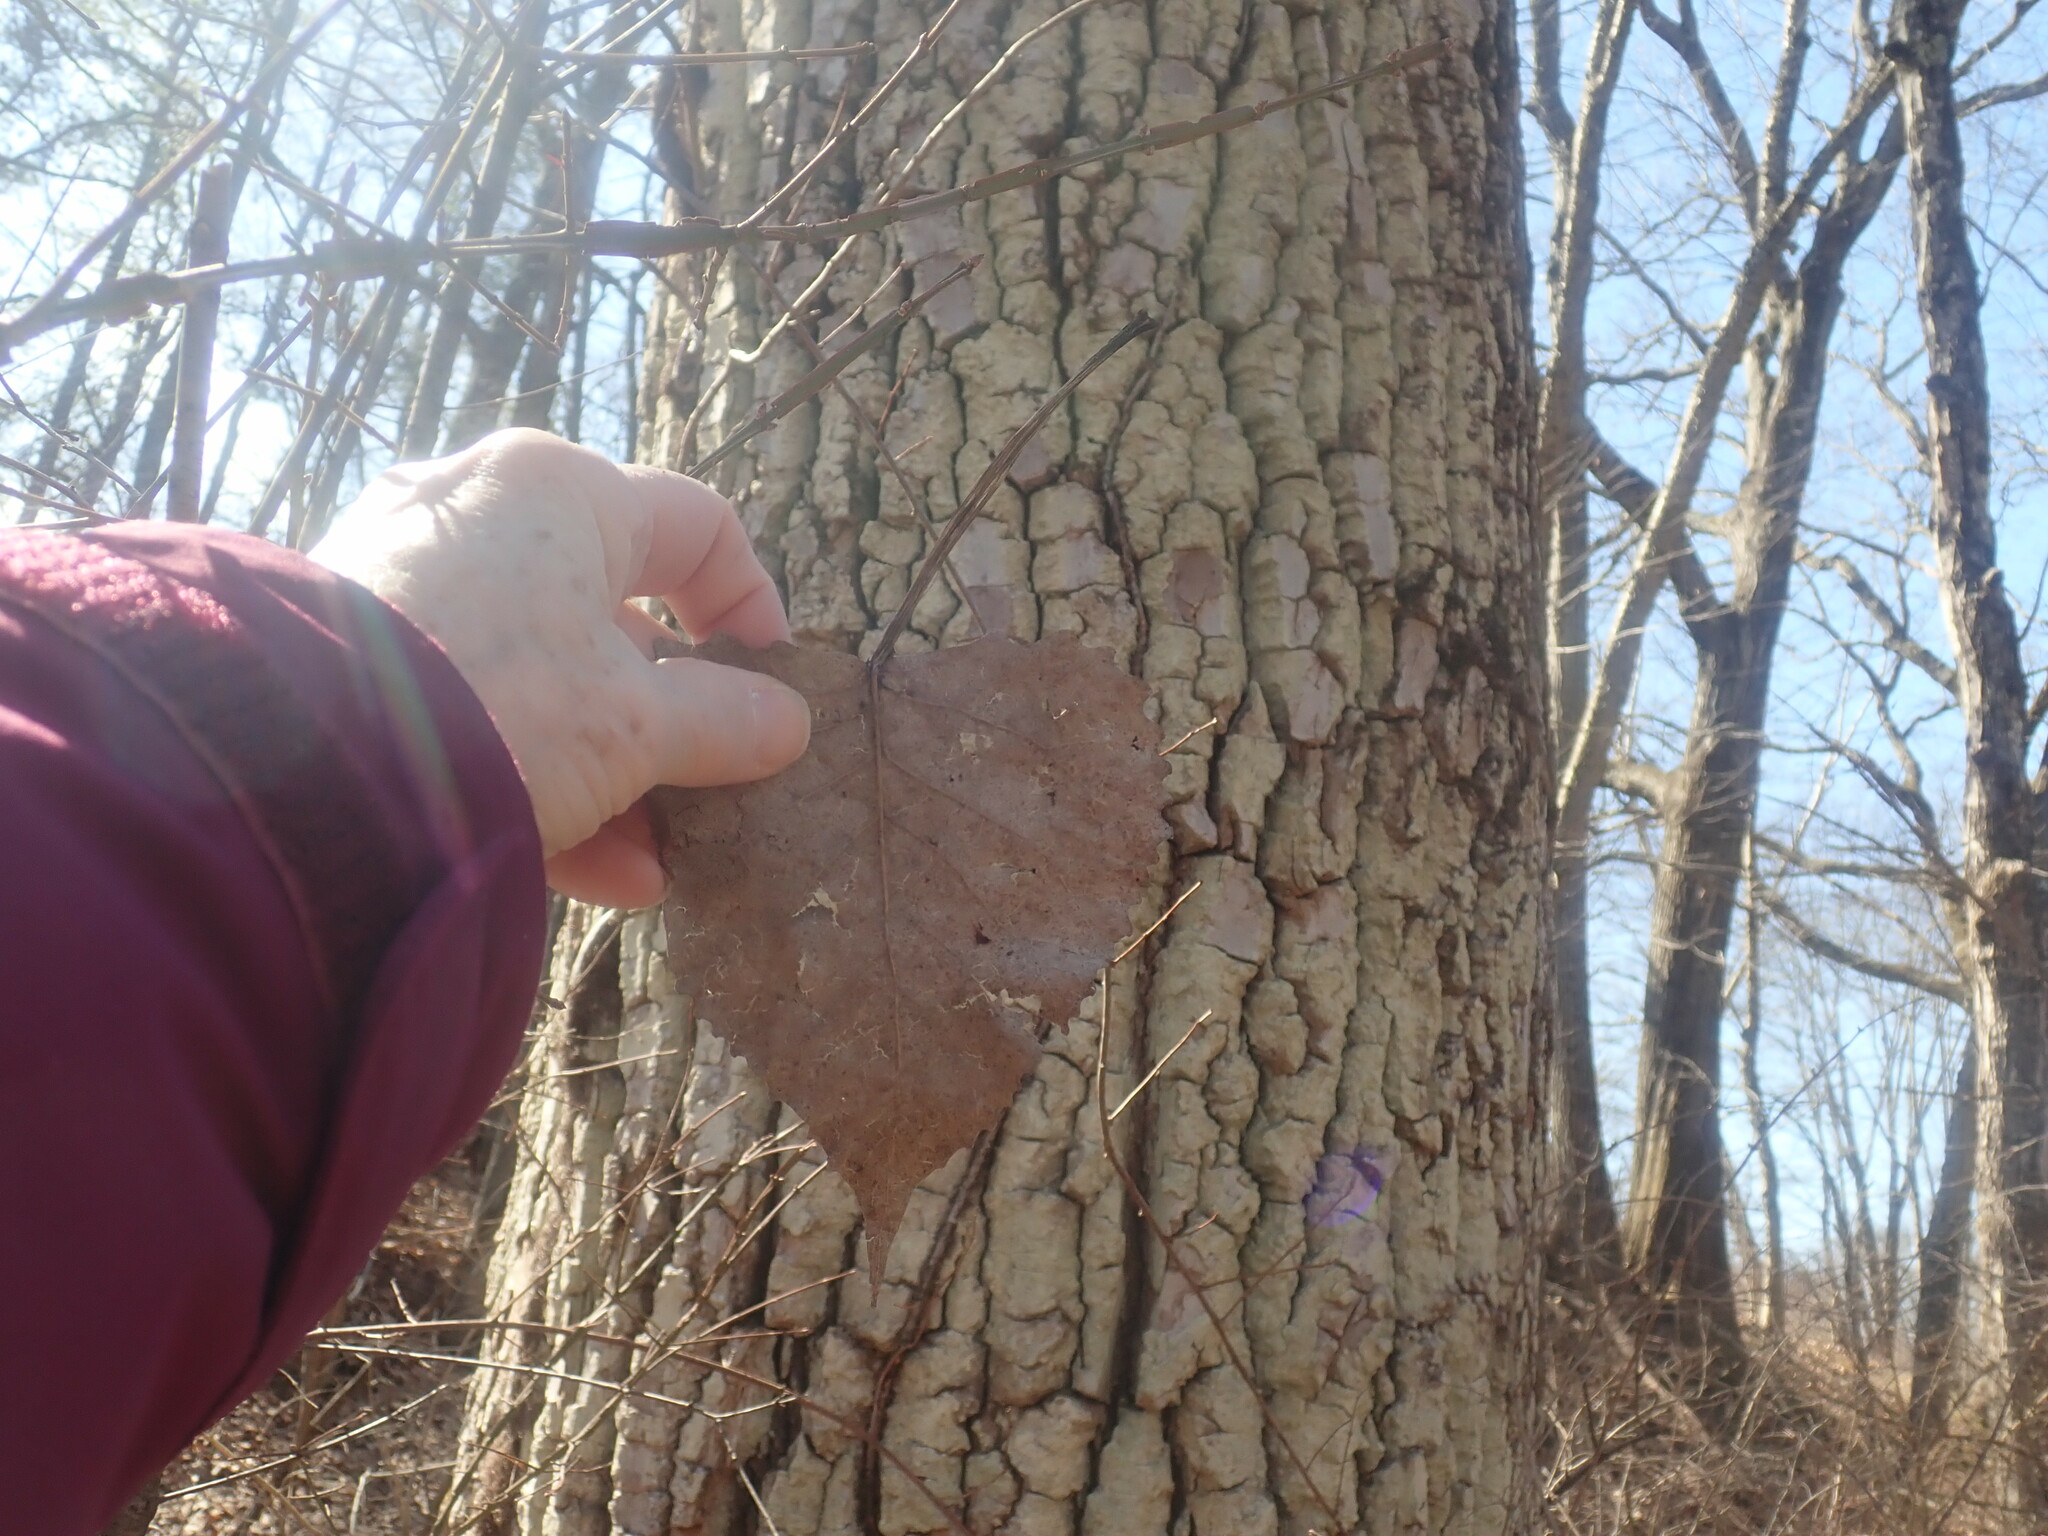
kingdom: Plantae
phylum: Tracheophyta
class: Magnoliopsida
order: Malpighiales
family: Salicaceae
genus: Populus
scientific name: Populus deltoides
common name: Eastern cottonwood
